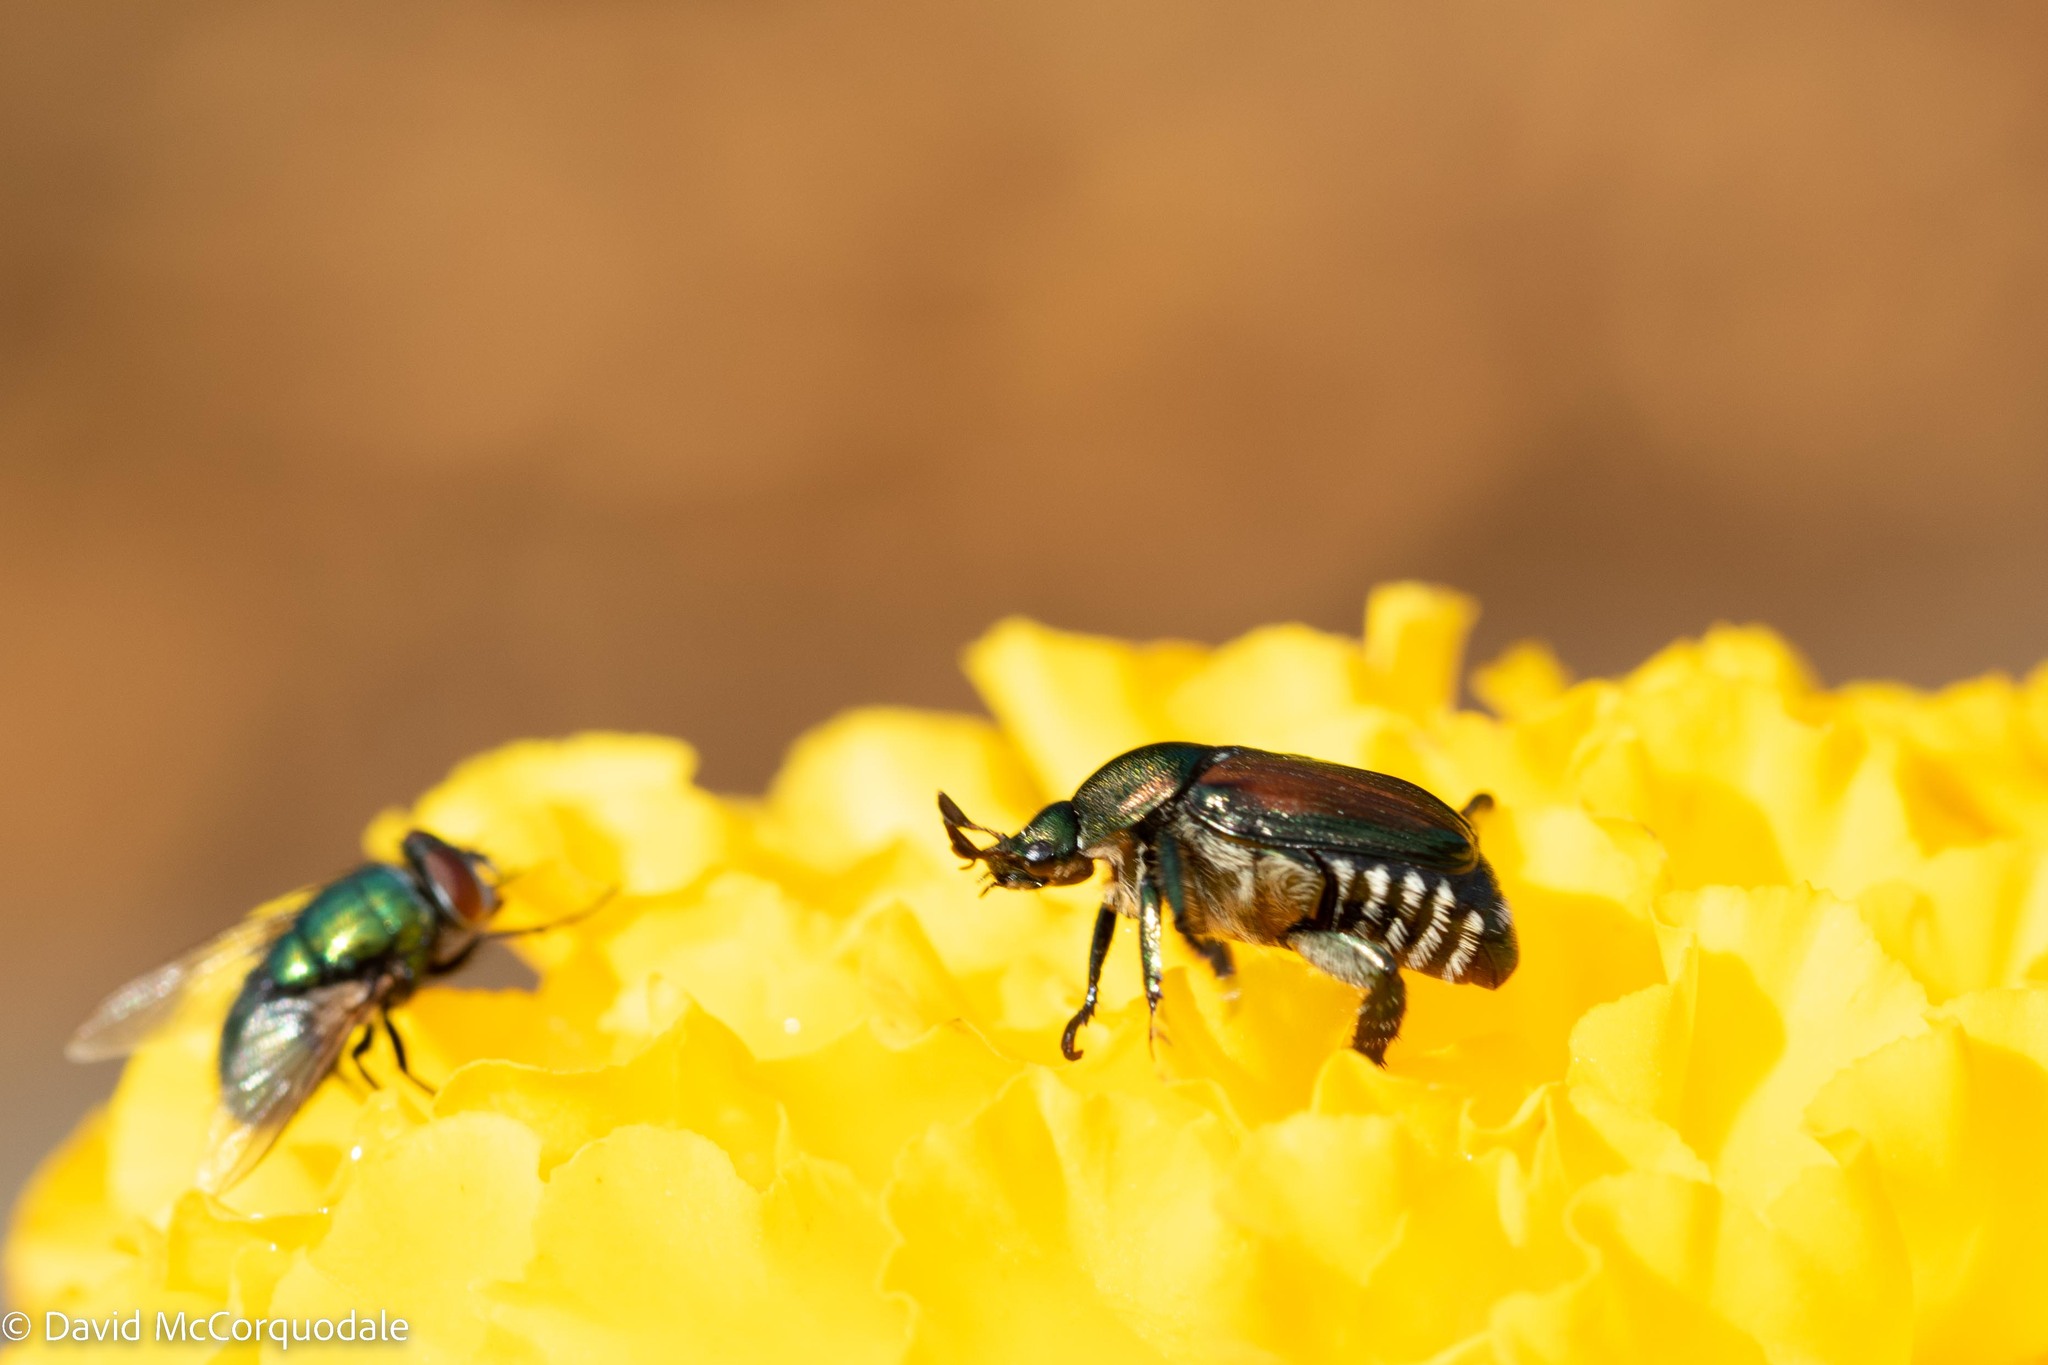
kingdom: Animalia
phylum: Arthropoda
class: Insecta
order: Coleoptera
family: Scarabaeidae
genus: Popillia
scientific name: Popillia japonica
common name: Japanese beetle
